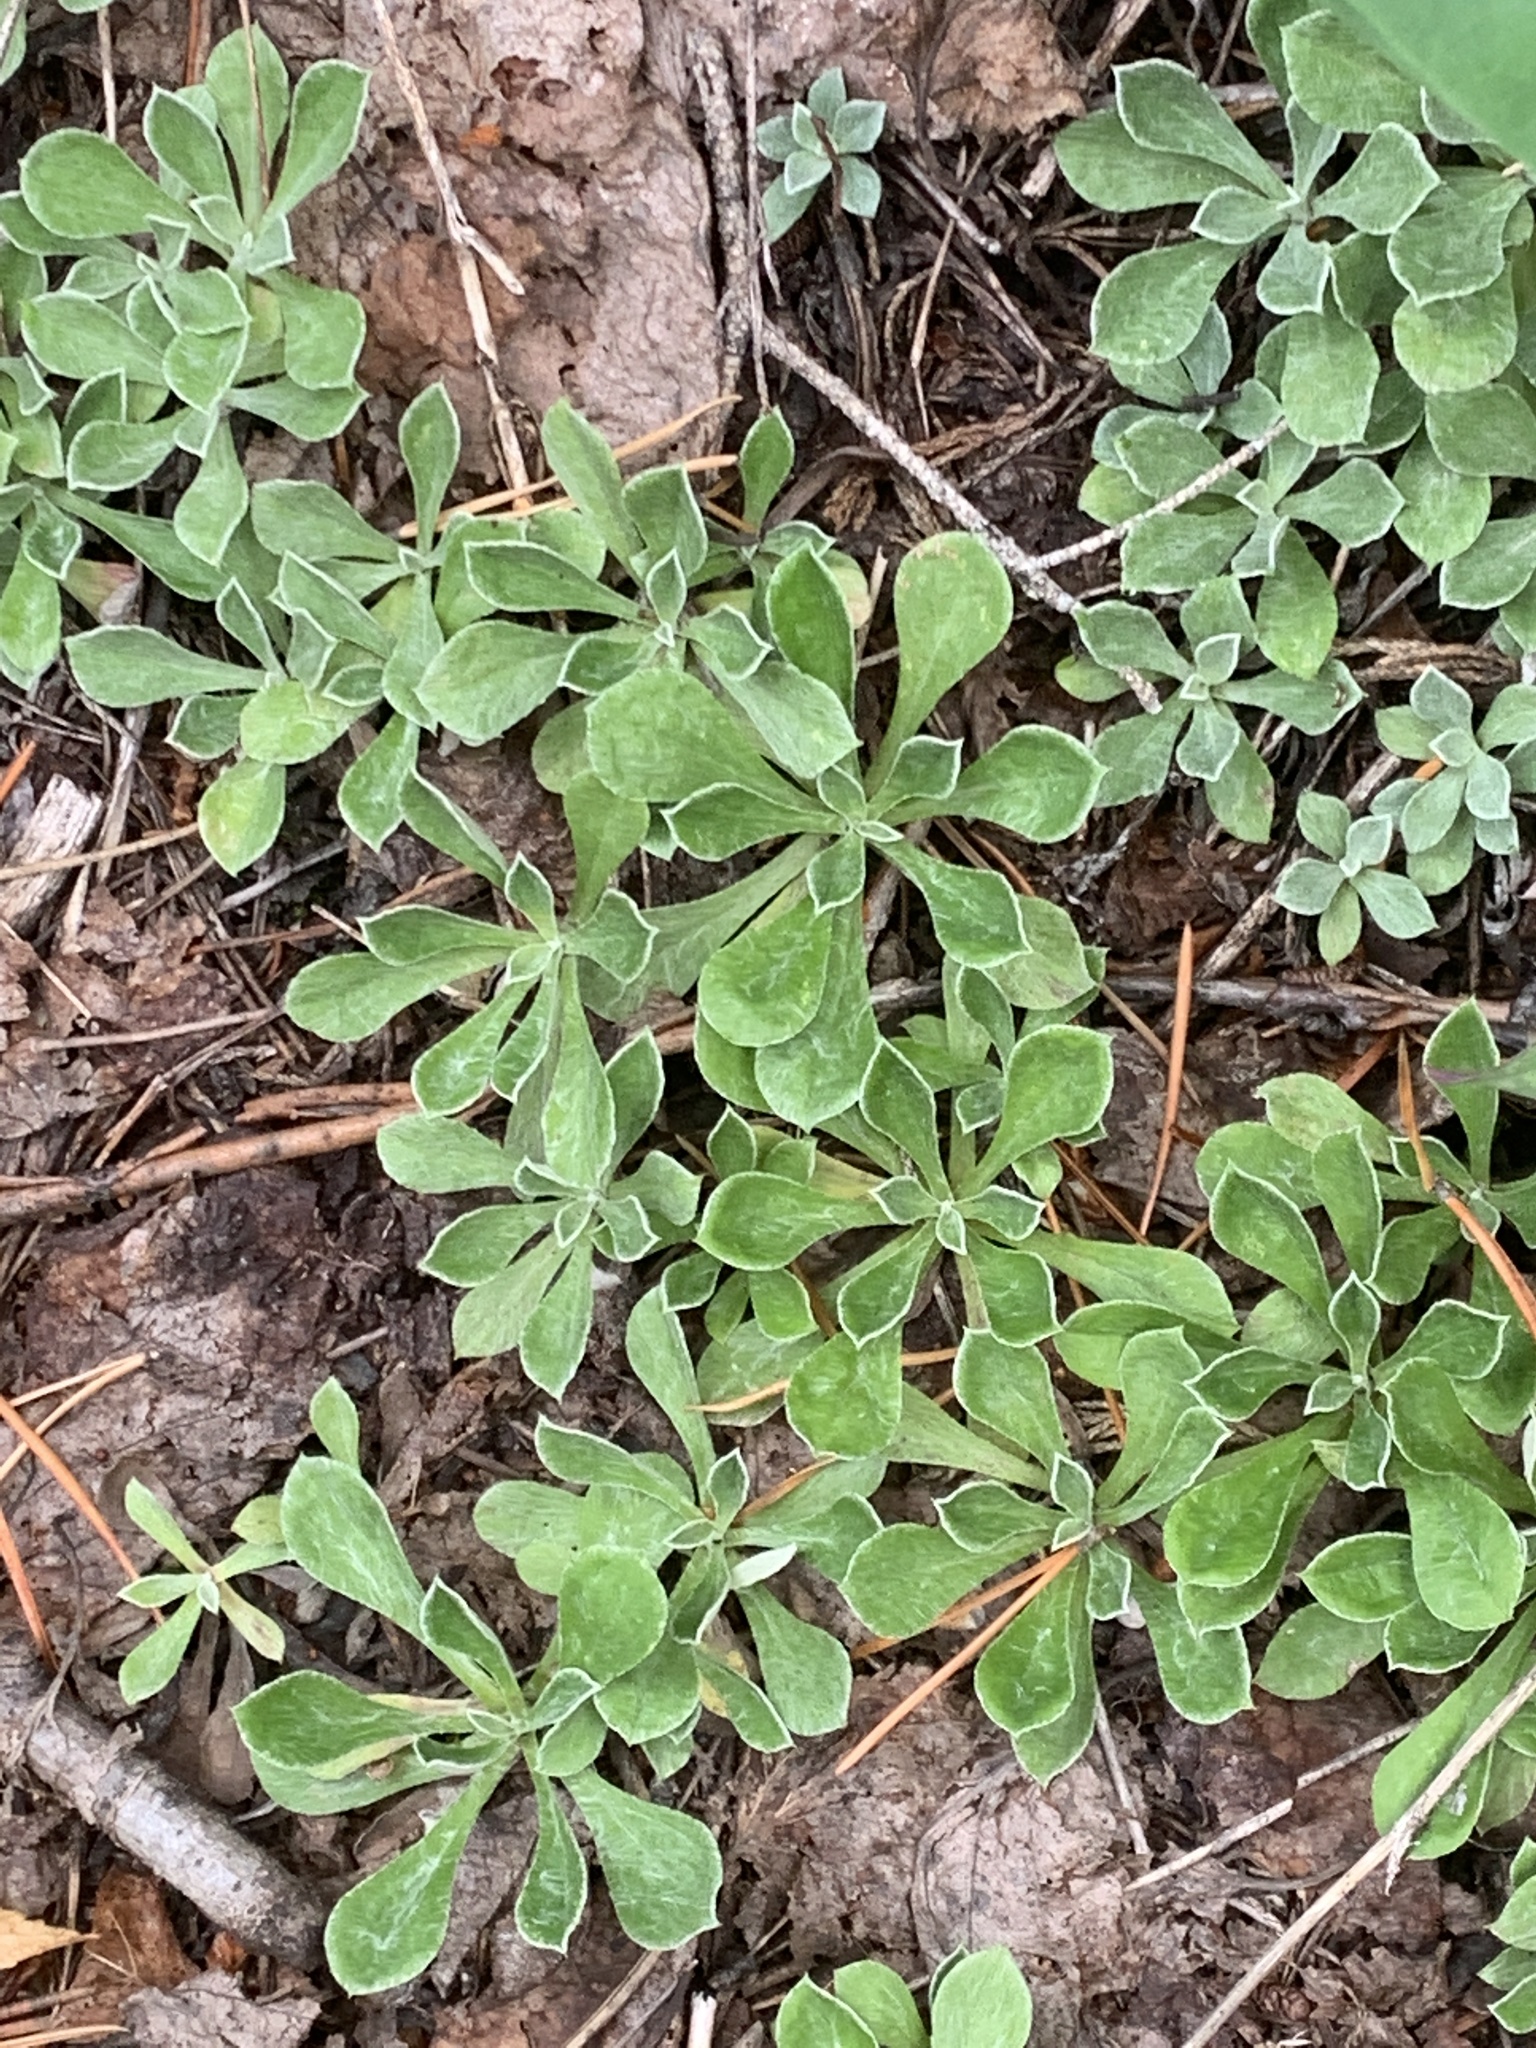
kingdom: Plantae
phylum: Tracheophyta
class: Magnoliopsida
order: Asterales
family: Asteraceae
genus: Antennaria
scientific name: Antennaria howellii
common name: Howell's pussytoes
